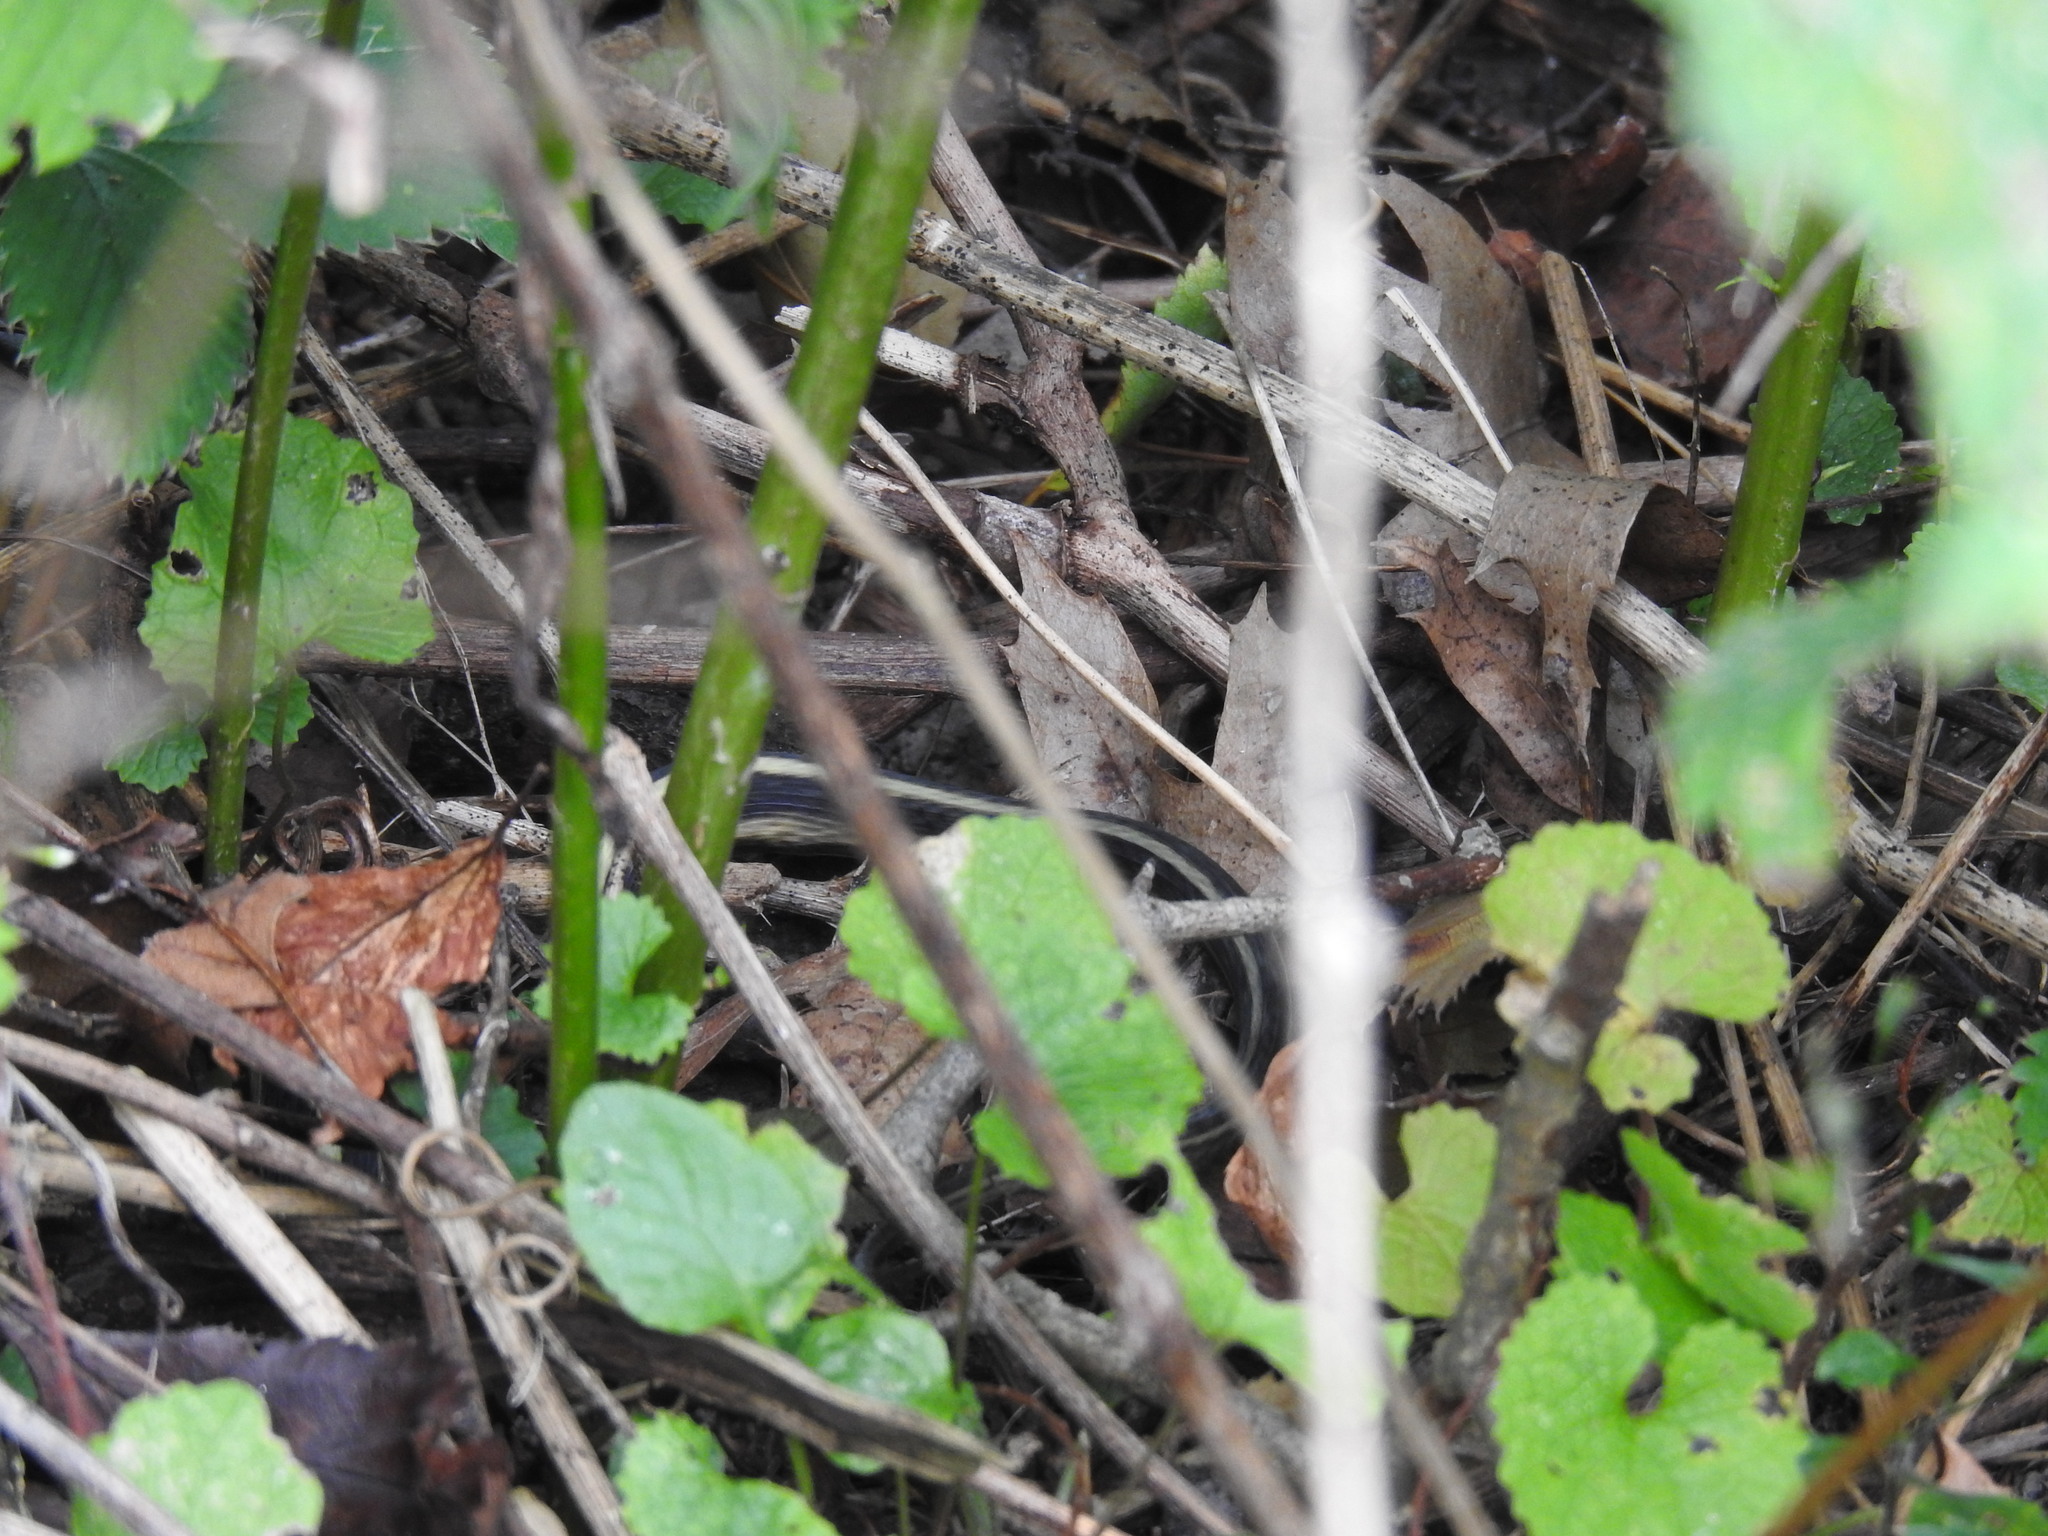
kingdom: Animalia
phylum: Chordata
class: Squamata
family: Colubridae
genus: Thamnophis
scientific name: Thamnophis sirtalis
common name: Common garter snake
